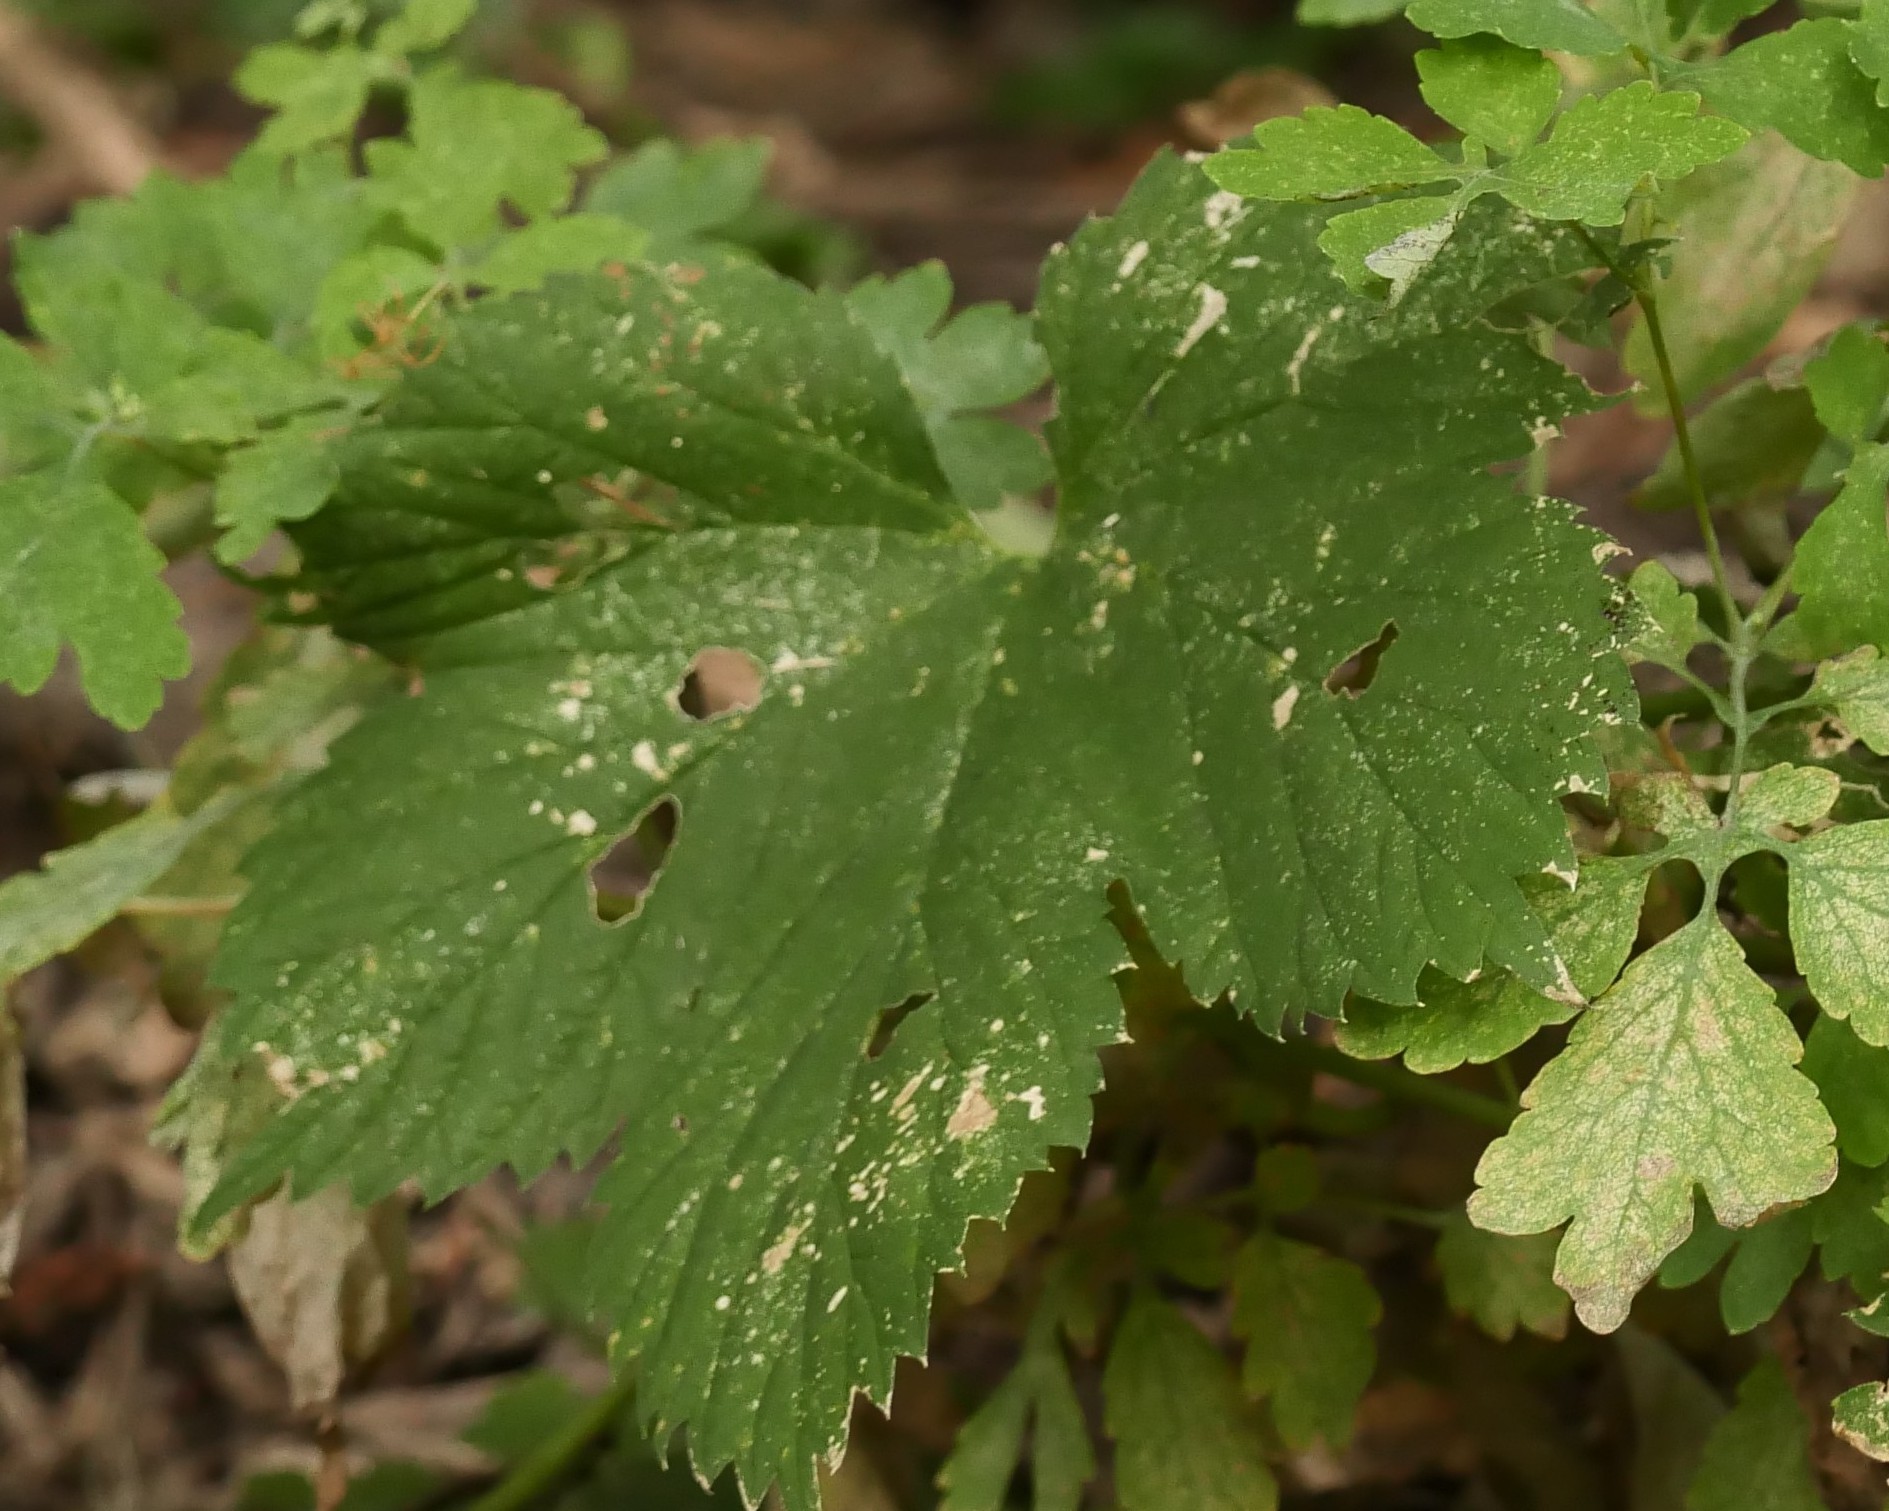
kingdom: Plantae
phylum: Tracheophyta
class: Magnoliopsida
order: Rosales
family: Cannabaceae
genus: Humulus
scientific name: Humulus lupulus
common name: Hop
